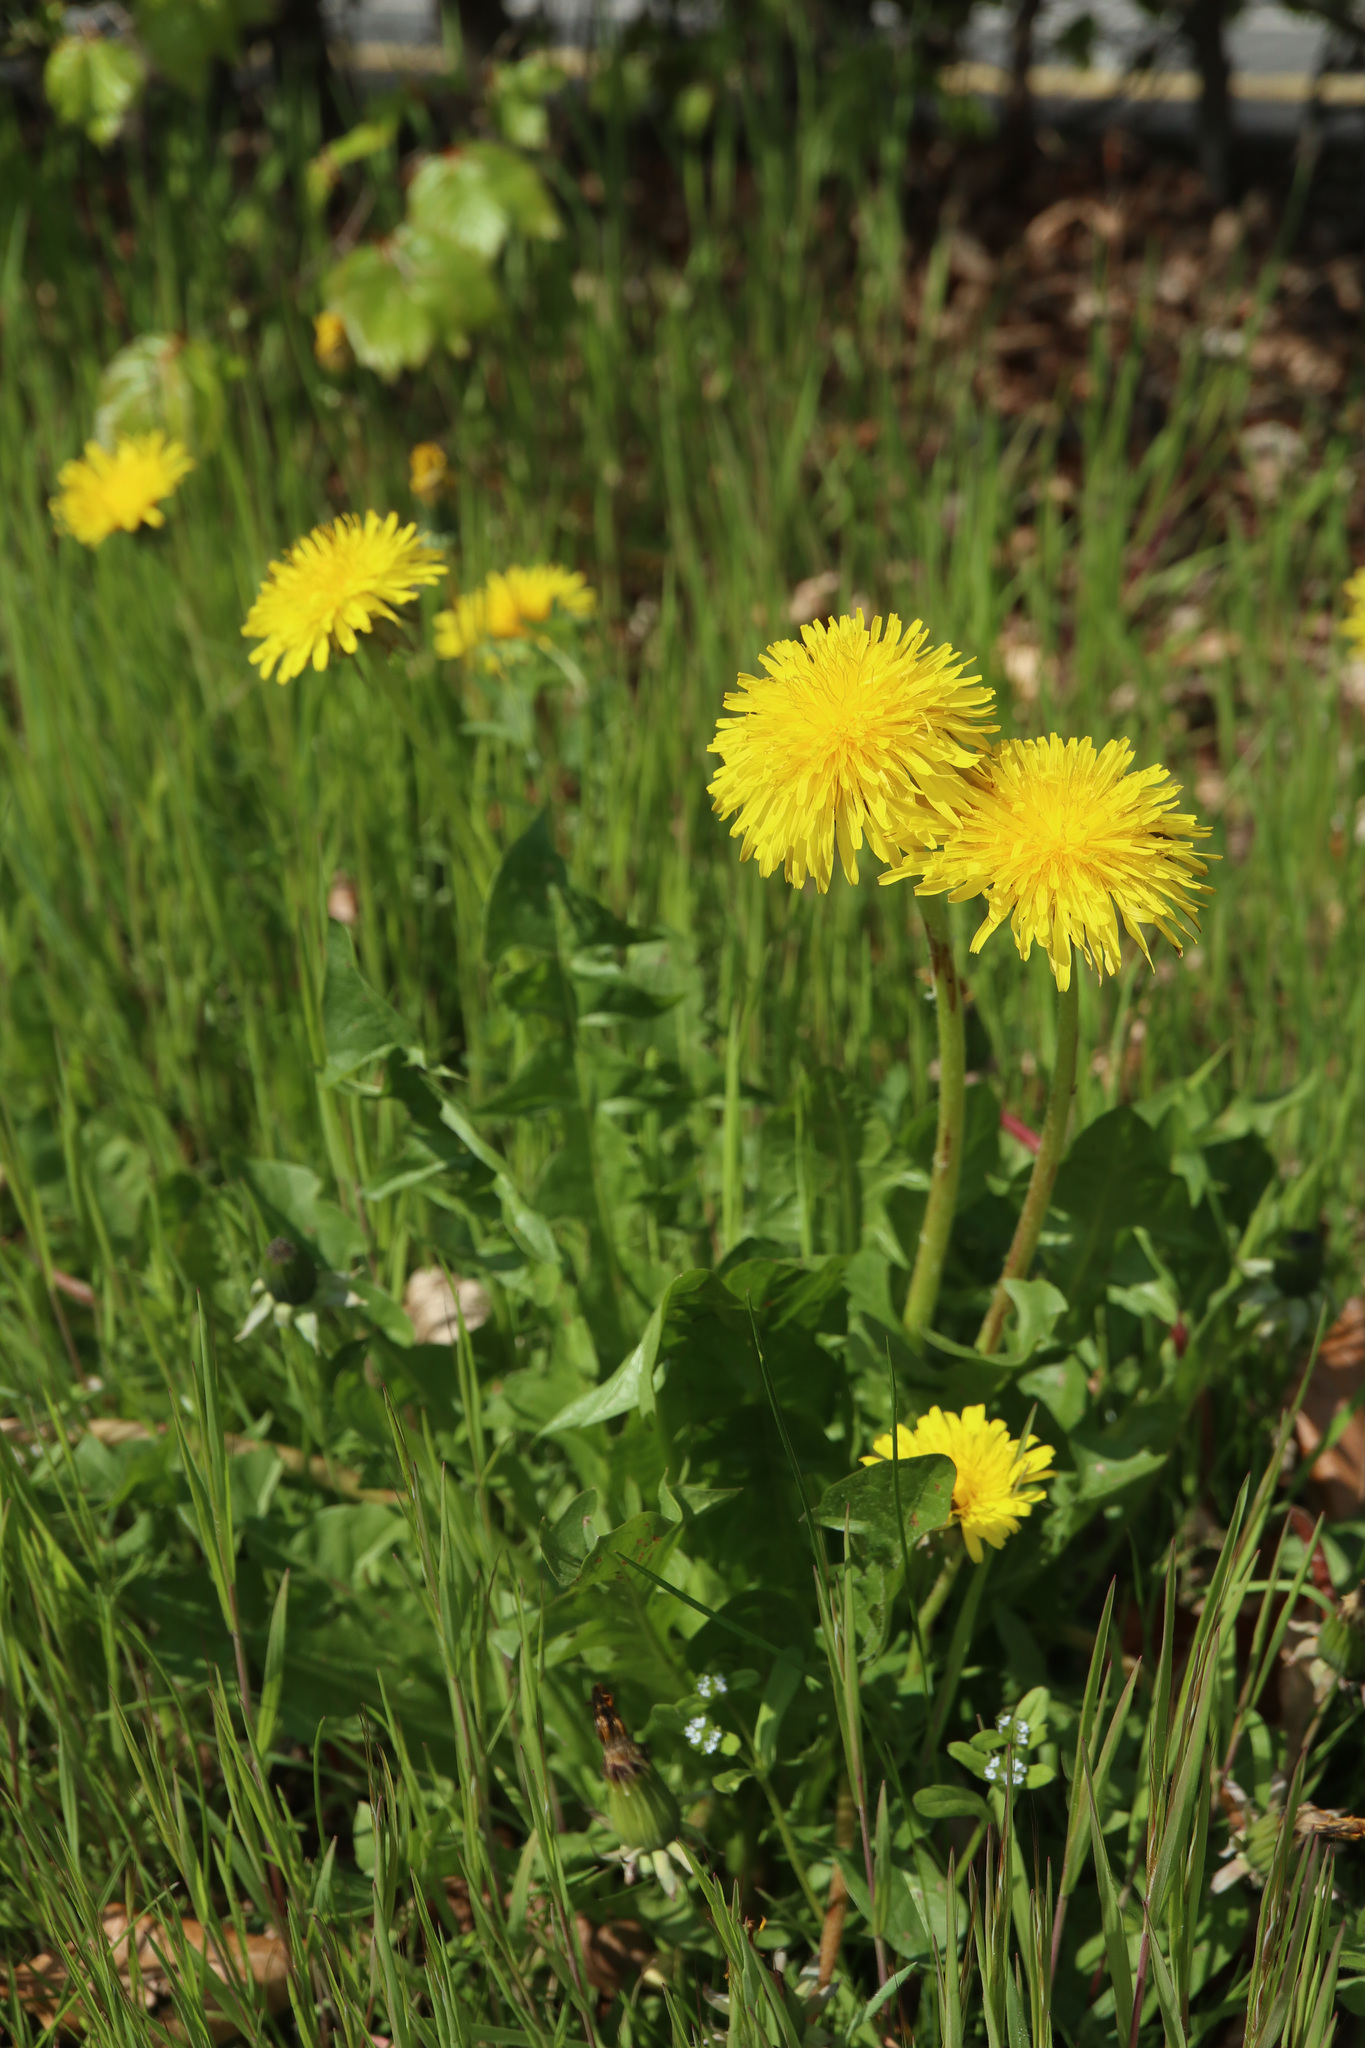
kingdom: Plantae
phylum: Tracheophyta
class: Magnoliopsida
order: Asterales
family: Asteraceae
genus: Taraxacum
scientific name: Taraxacum officinale
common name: Common dandelion
